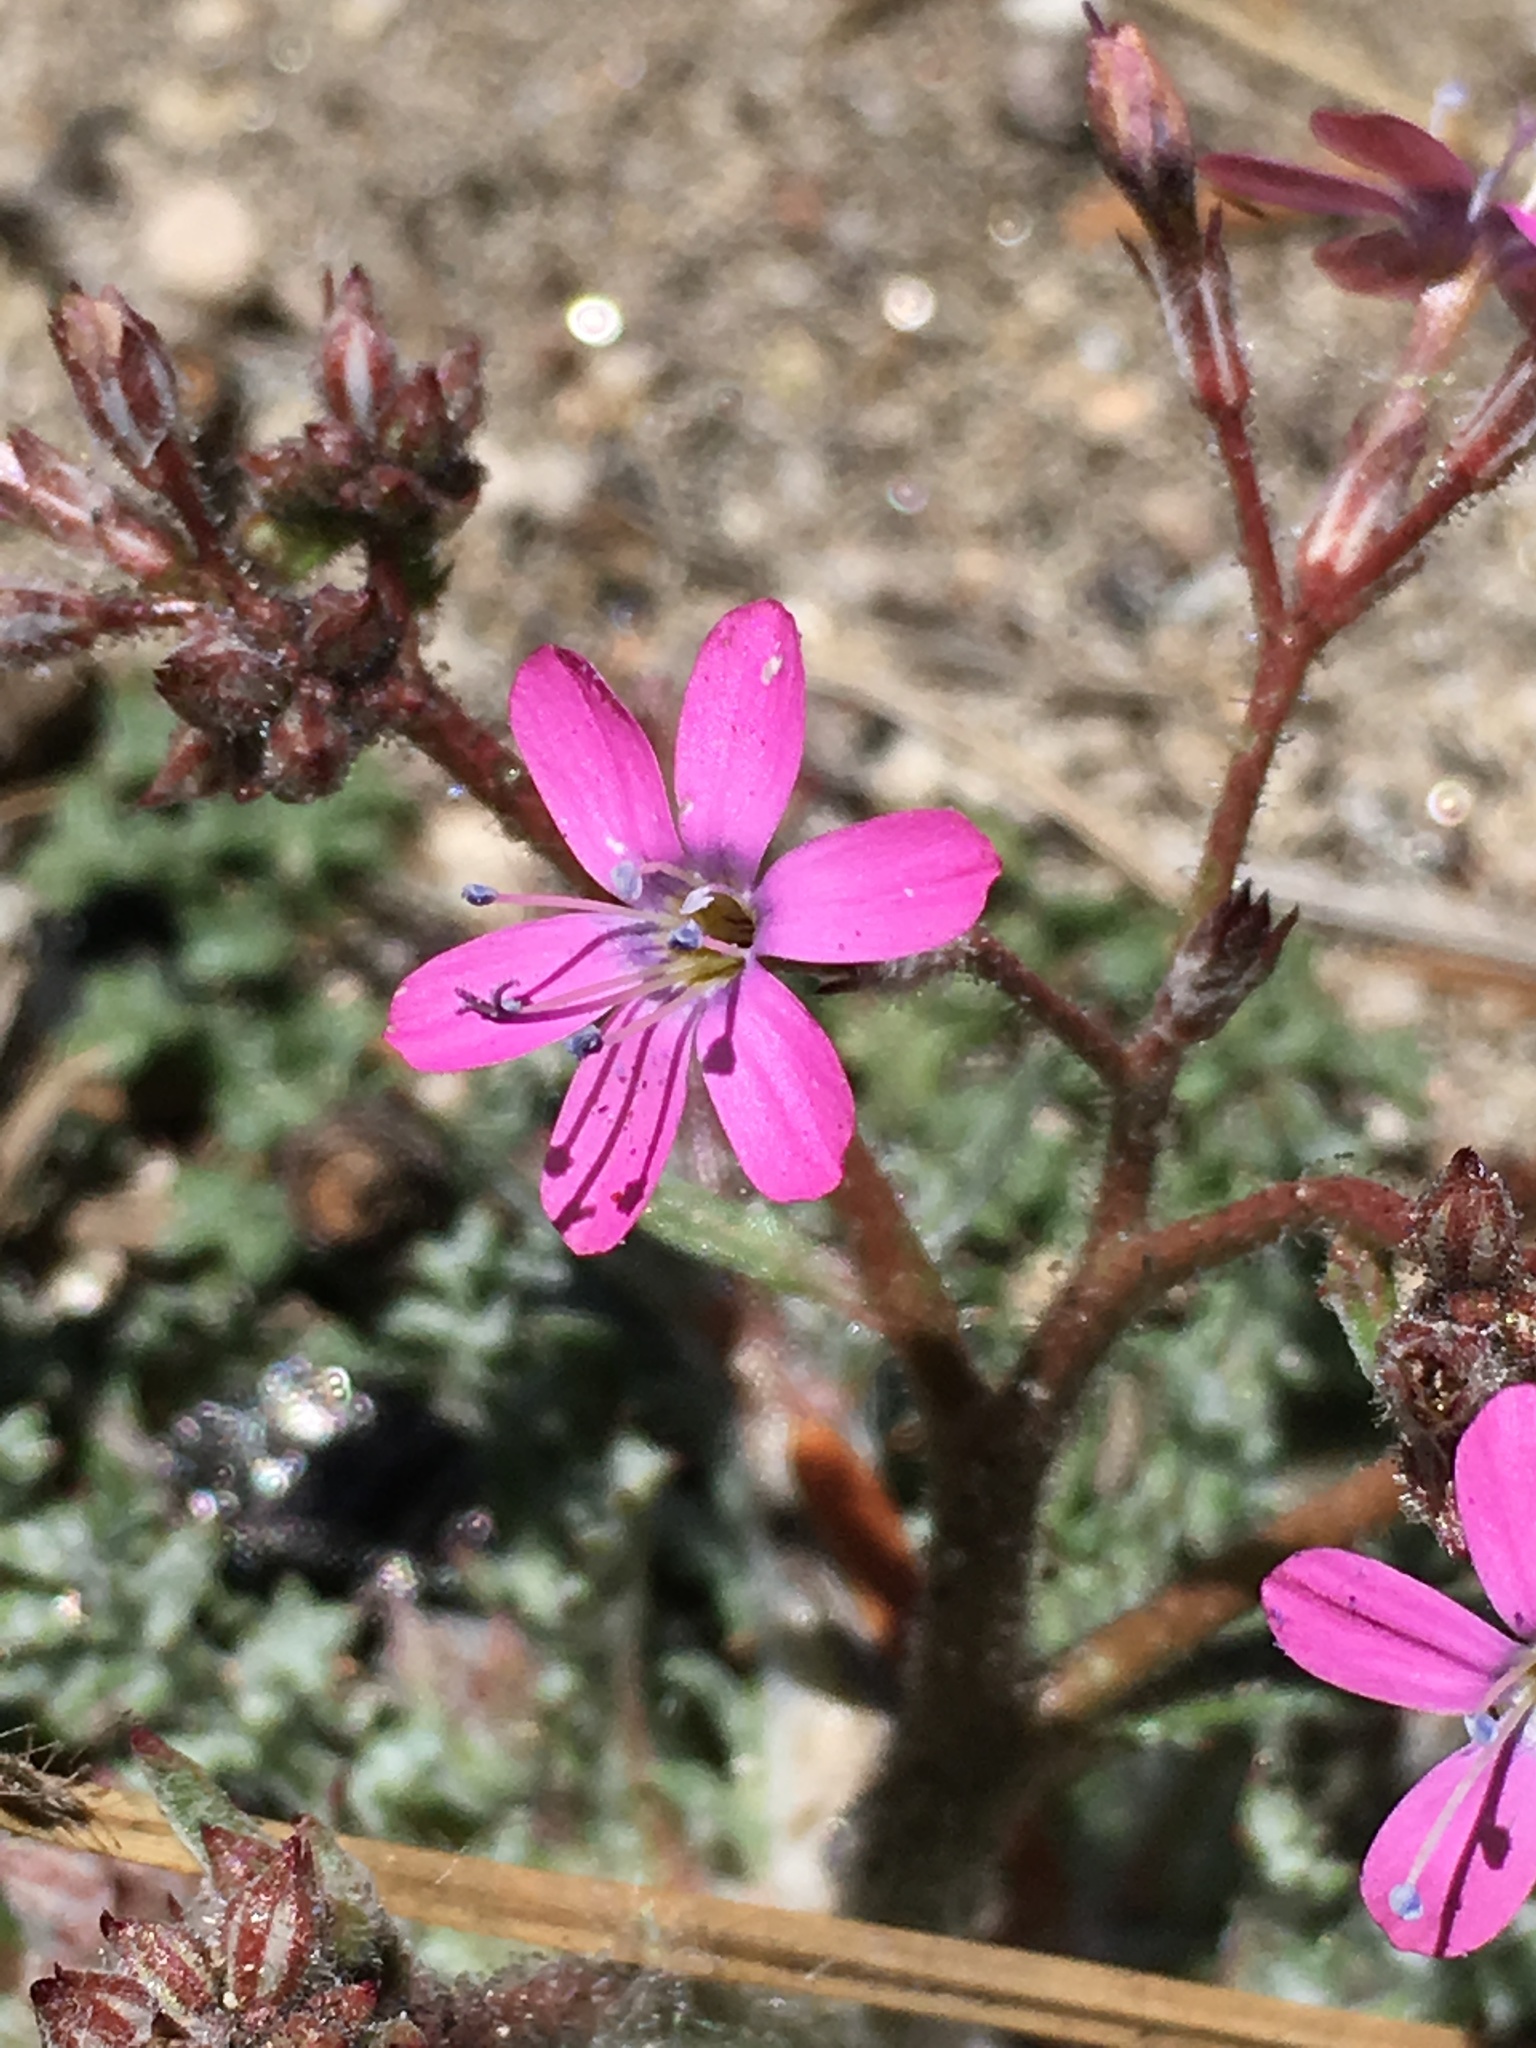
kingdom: Plantae
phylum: Tracheophyta
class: Magnoliopsida
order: Ericales
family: Polemoniaceae
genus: Saltugilia
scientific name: Saltugilia splendens
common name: Grinnell's gilia
